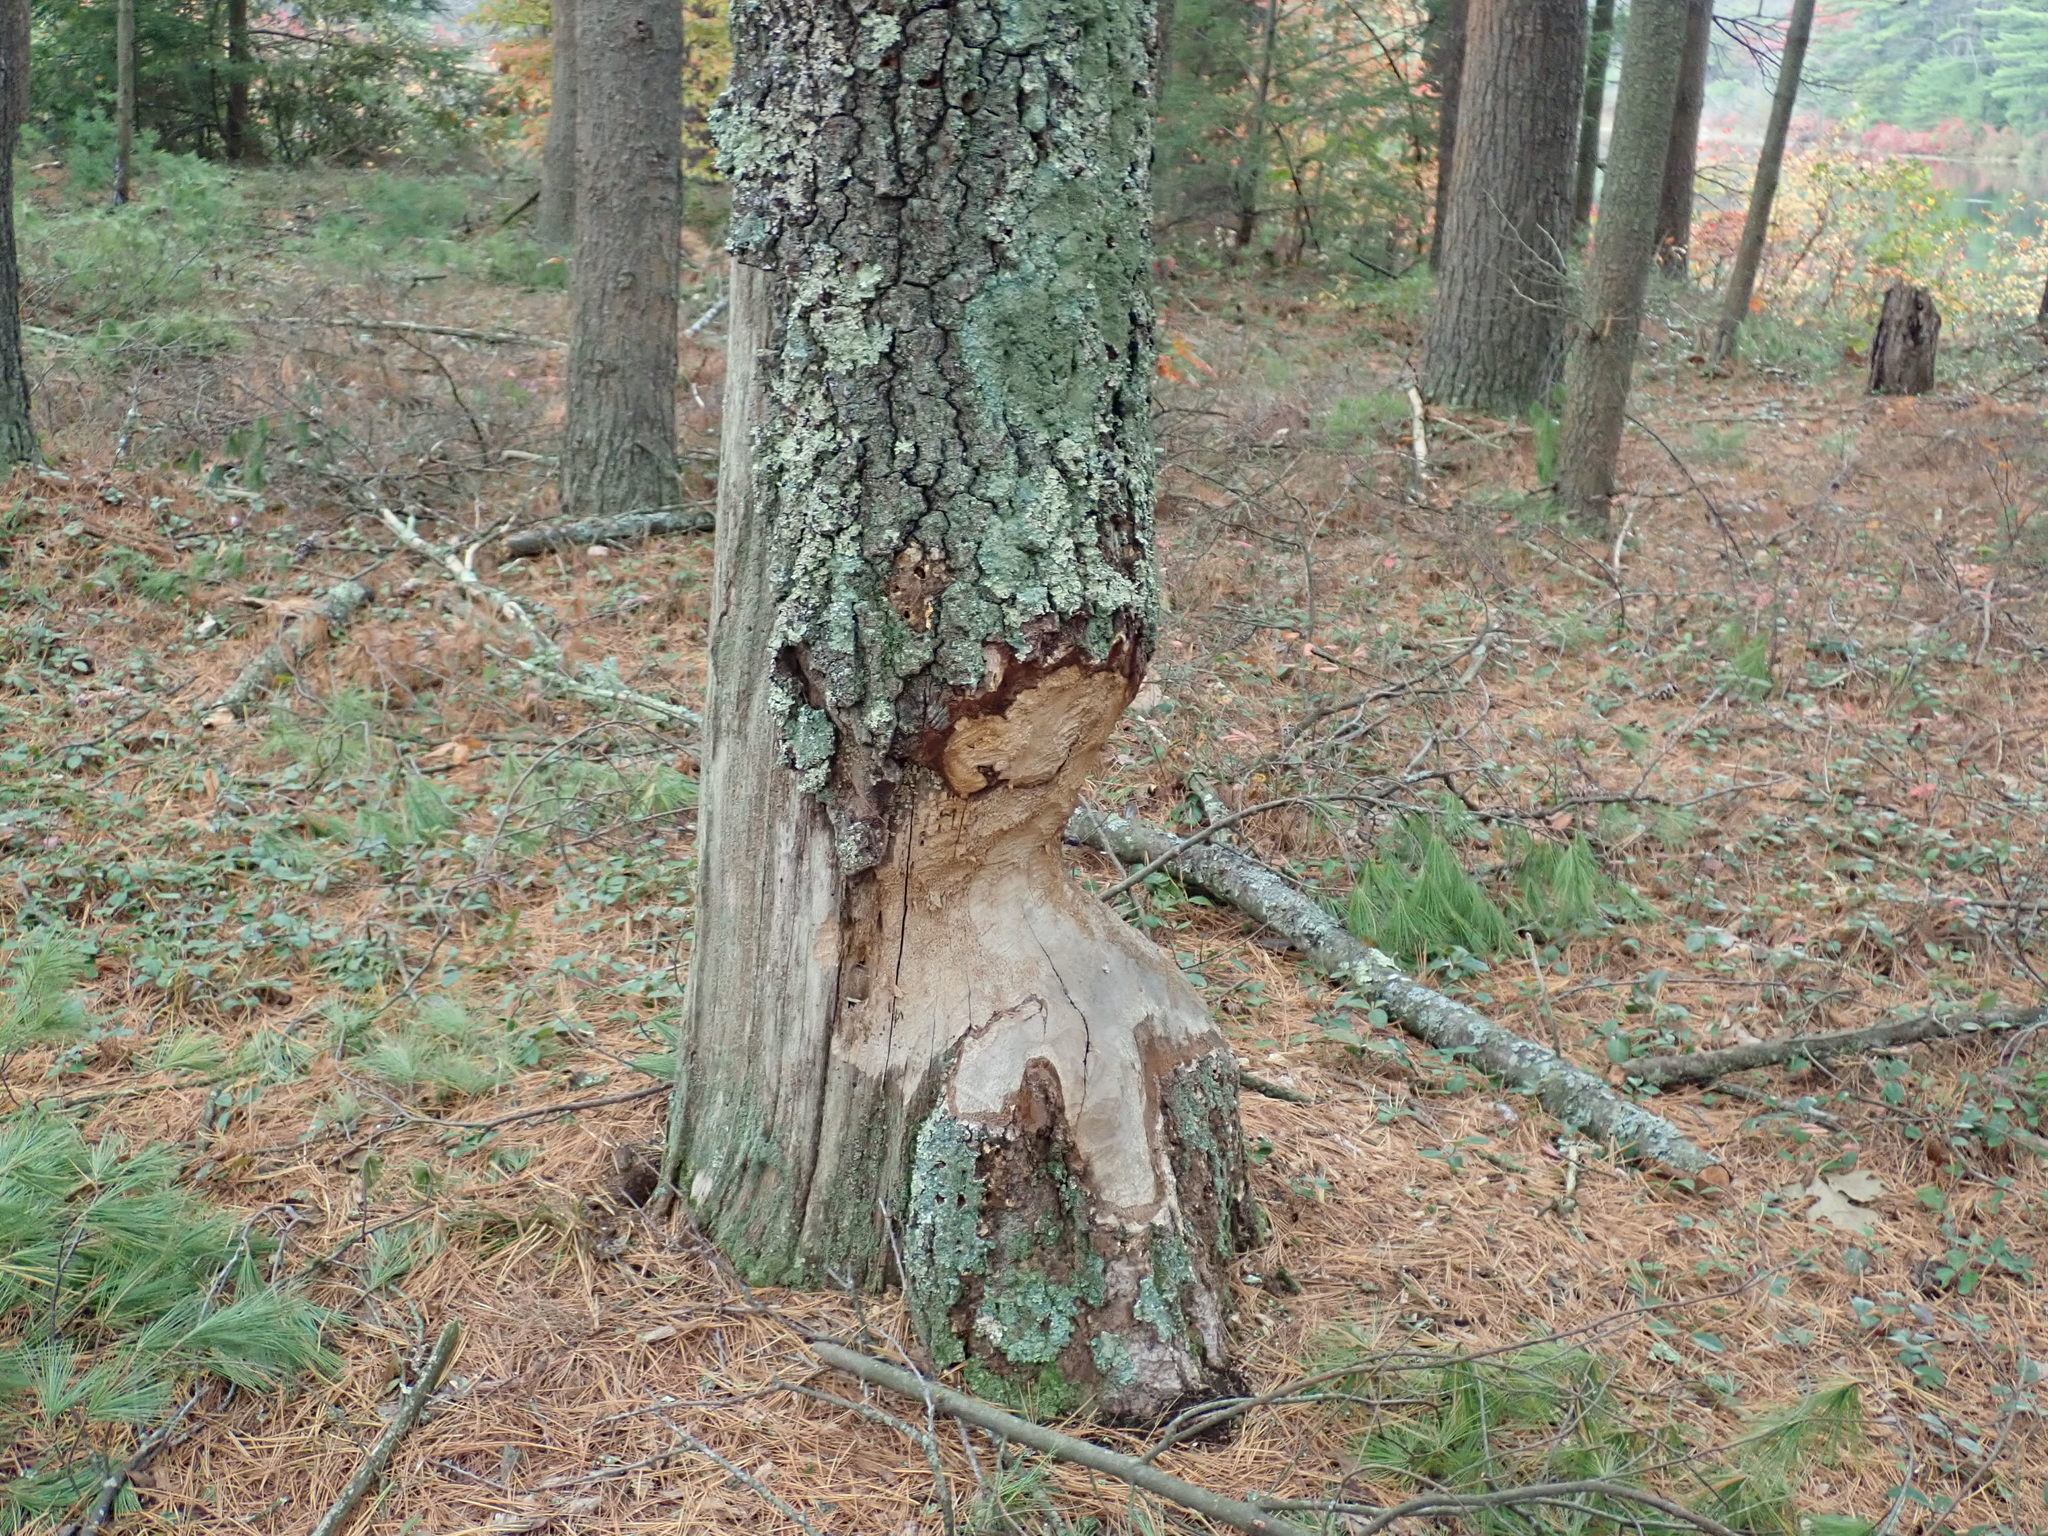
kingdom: Animalia
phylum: Chordata
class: Mammalia
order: Rodentia
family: Castoridae
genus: Castor
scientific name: Castor canadensis
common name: American beaver
